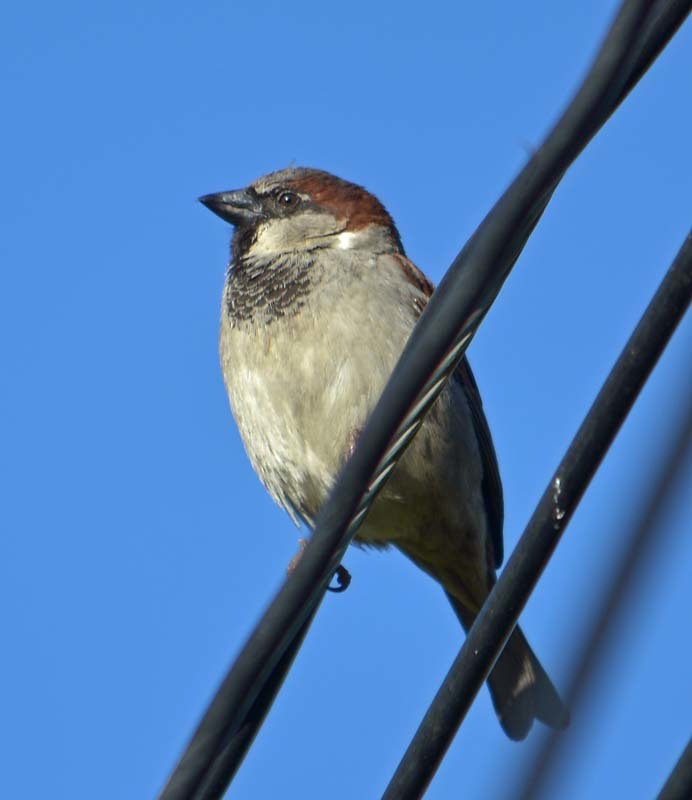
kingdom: Animalia
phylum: Chordata
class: Aves
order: Passeriformes
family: Passeridae
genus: Passer
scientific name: Passer domesticus
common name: House sparrow
